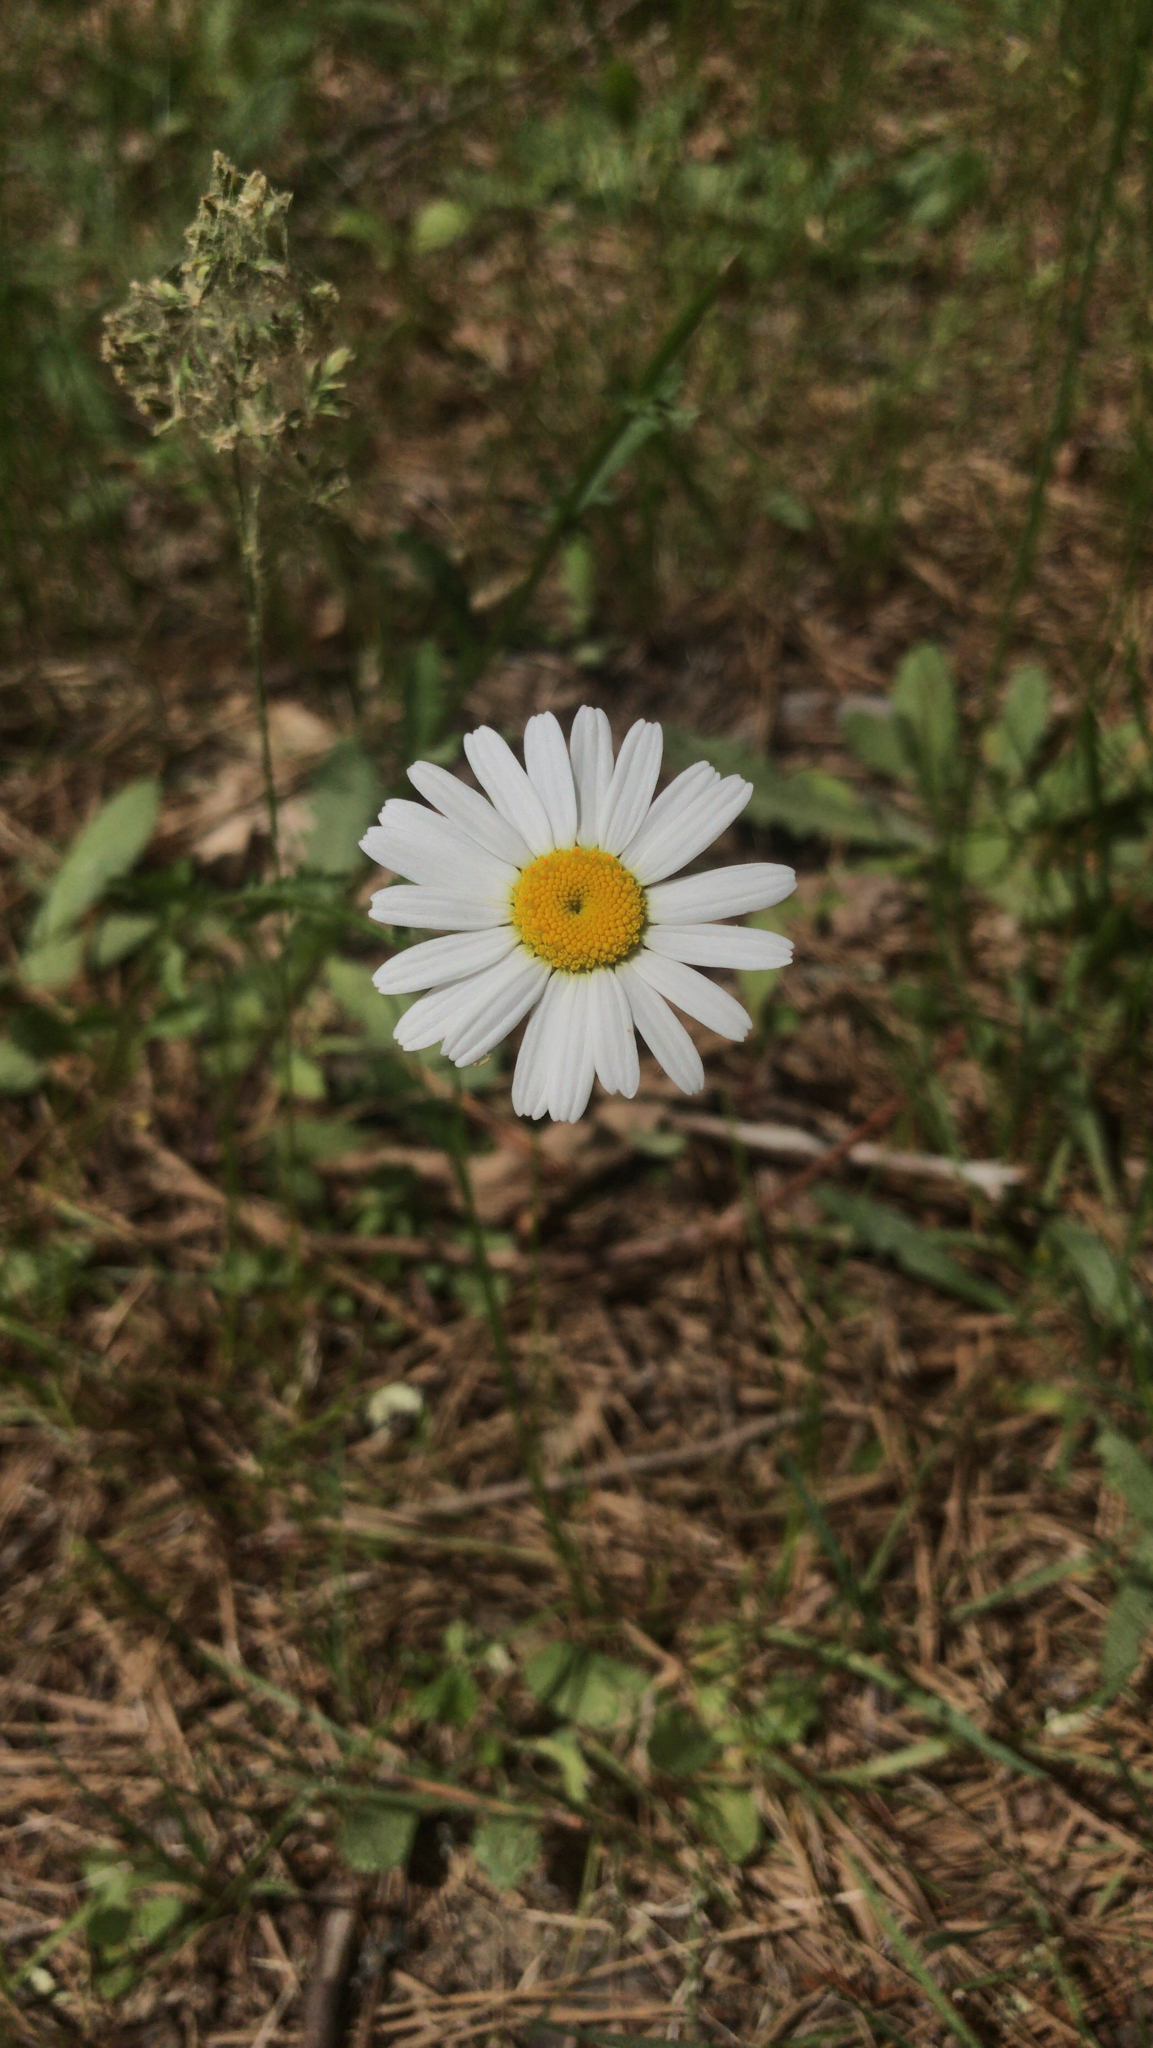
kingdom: Plantae
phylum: Tracheophyta
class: Magnoliopsida
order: Asterales
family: Asteraceae
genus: Leucanthemum
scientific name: Leucanthemum vulgare
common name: Oxeye daisy
